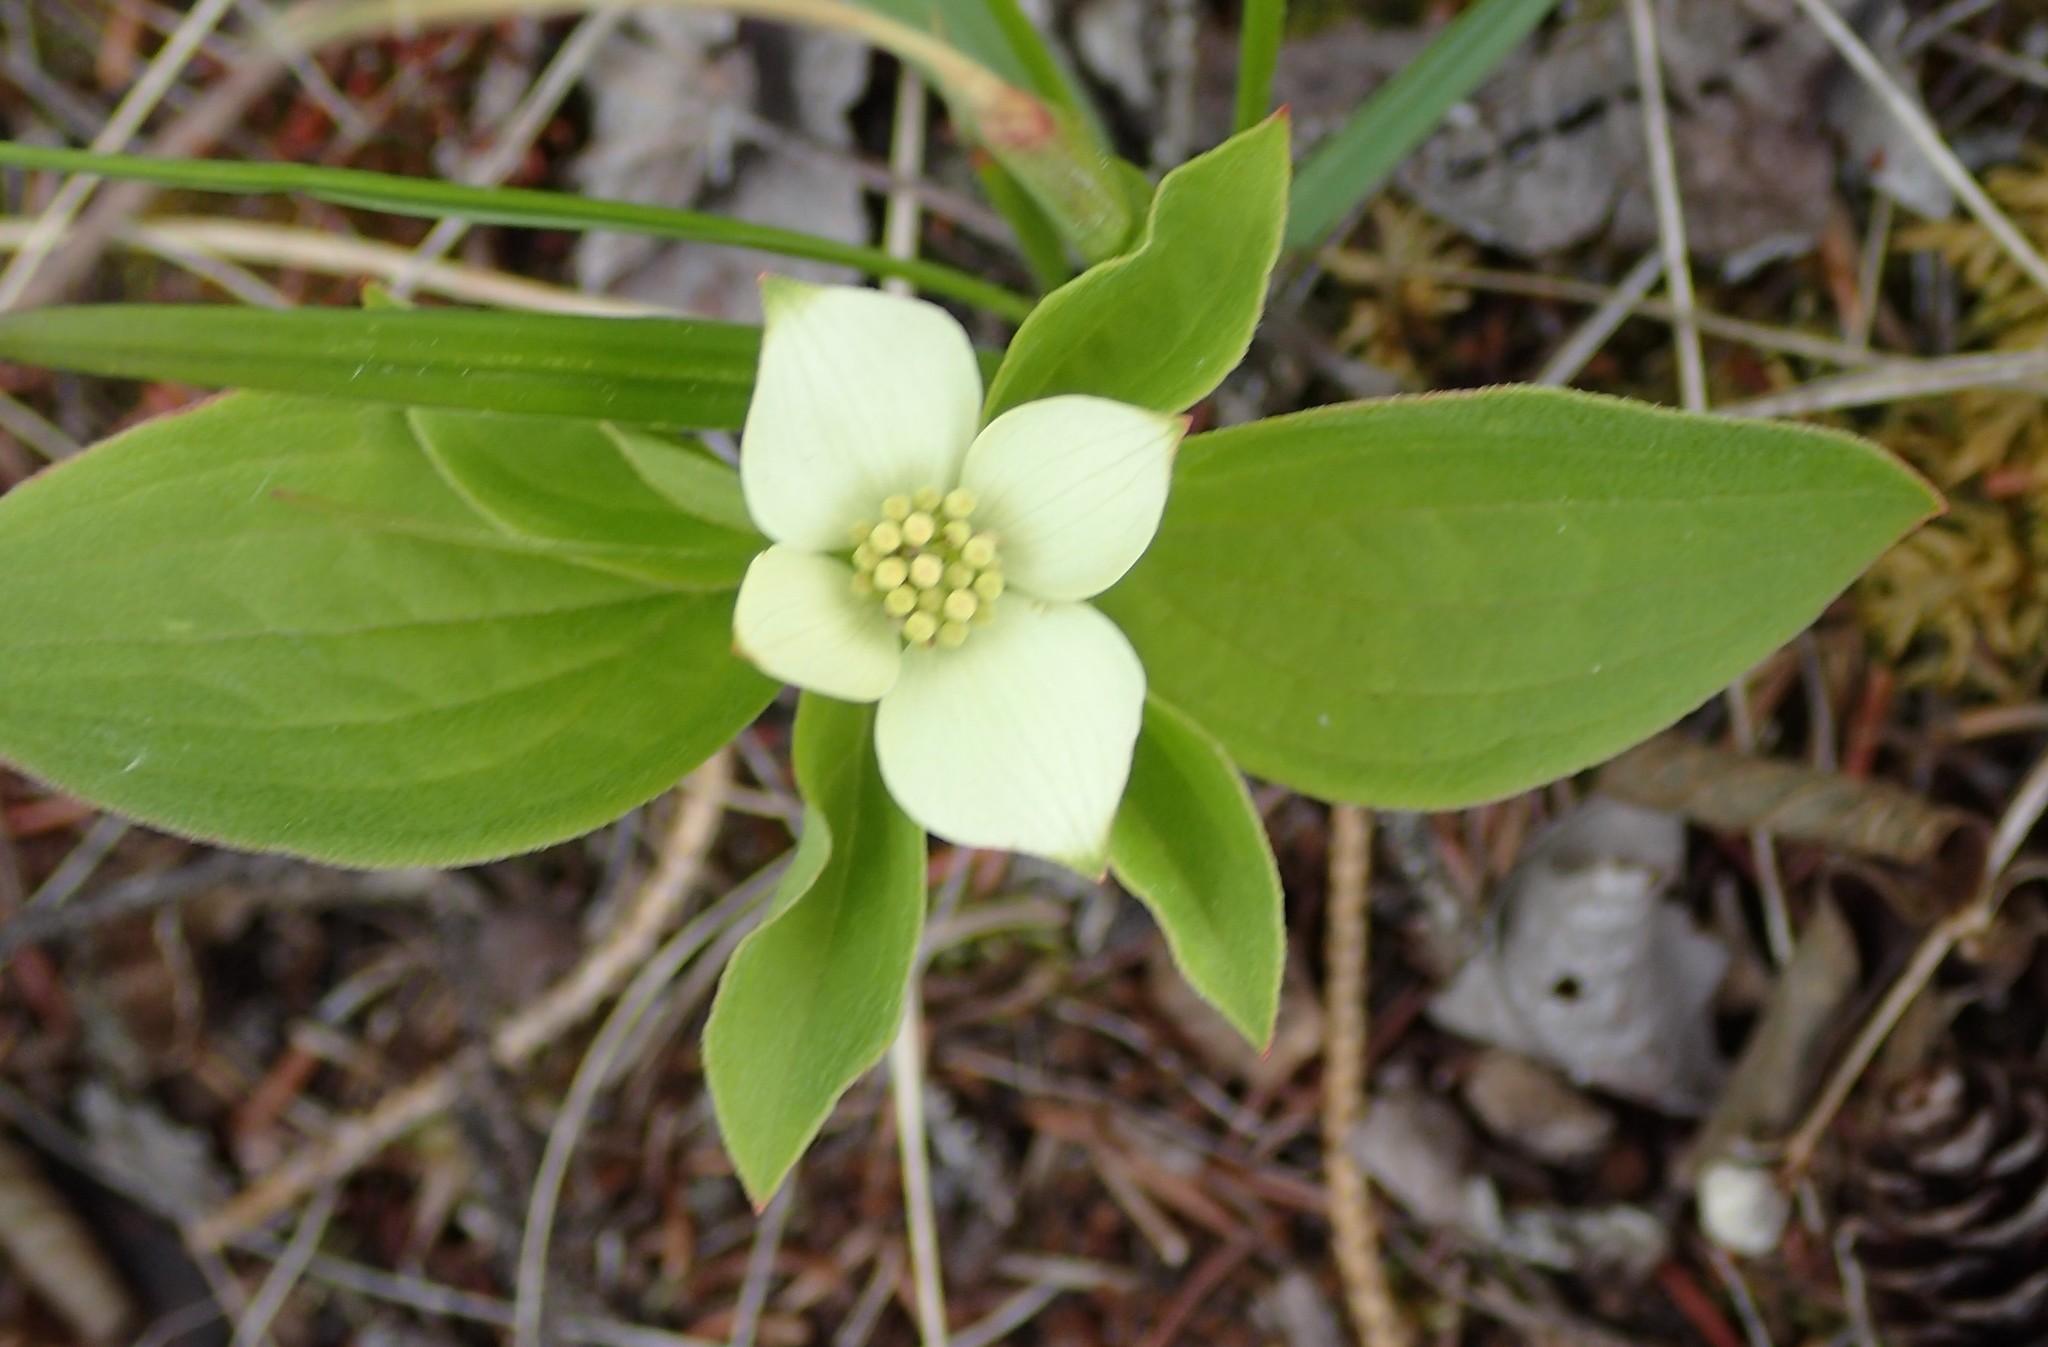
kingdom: Plantae
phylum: Tracheophyta
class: Magnoliopsida
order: Cornales
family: Cornaceae
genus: Cornus
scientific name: Cornus canadensis
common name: Creeping dogwood
